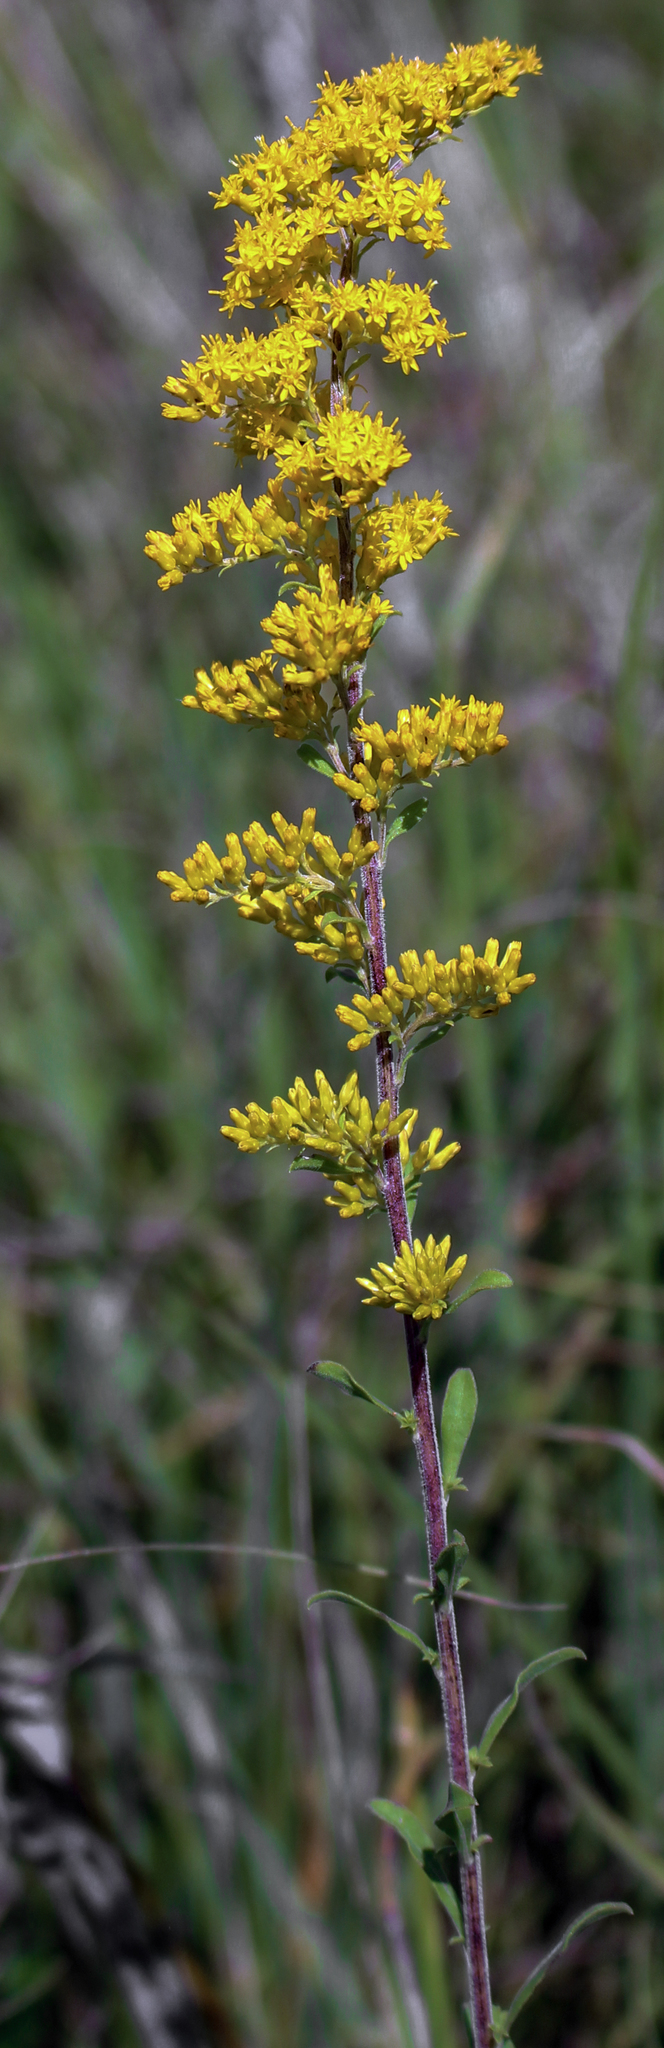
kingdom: Plantae
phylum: Tracheophyta
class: Magnoliopsida
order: Asterales
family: Asteraceae
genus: Solidago
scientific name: Solidago nemoralis
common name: Grey goldenrod
